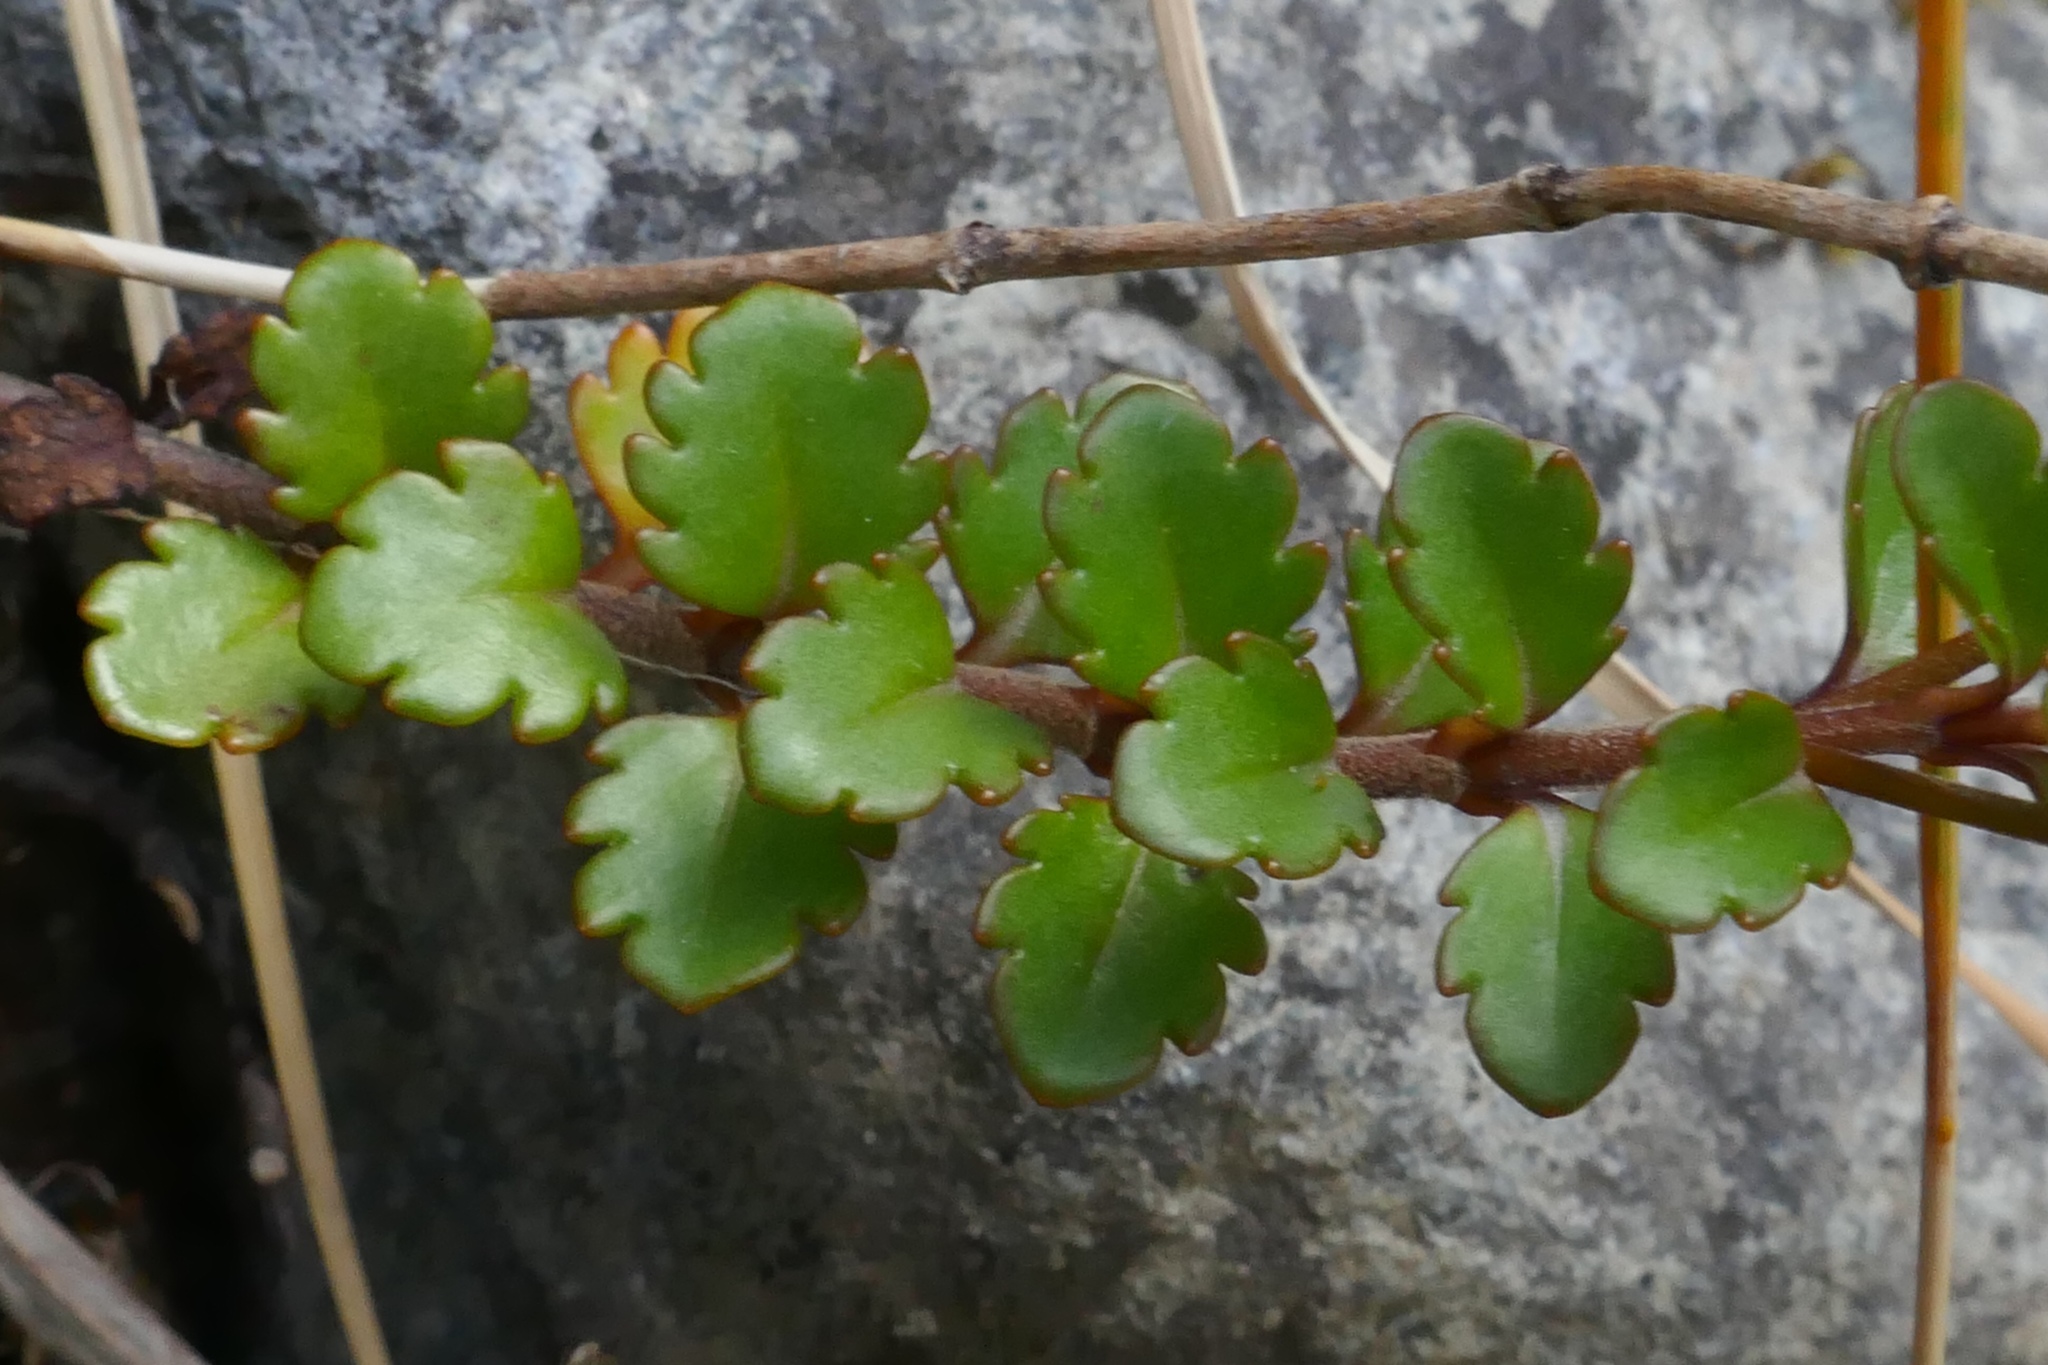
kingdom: Plantae
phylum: Tracheophyta
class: Magnoliopsida
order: Lamiales
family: Plantaginaceae
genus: Veronica
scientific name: Veronica lyallii
